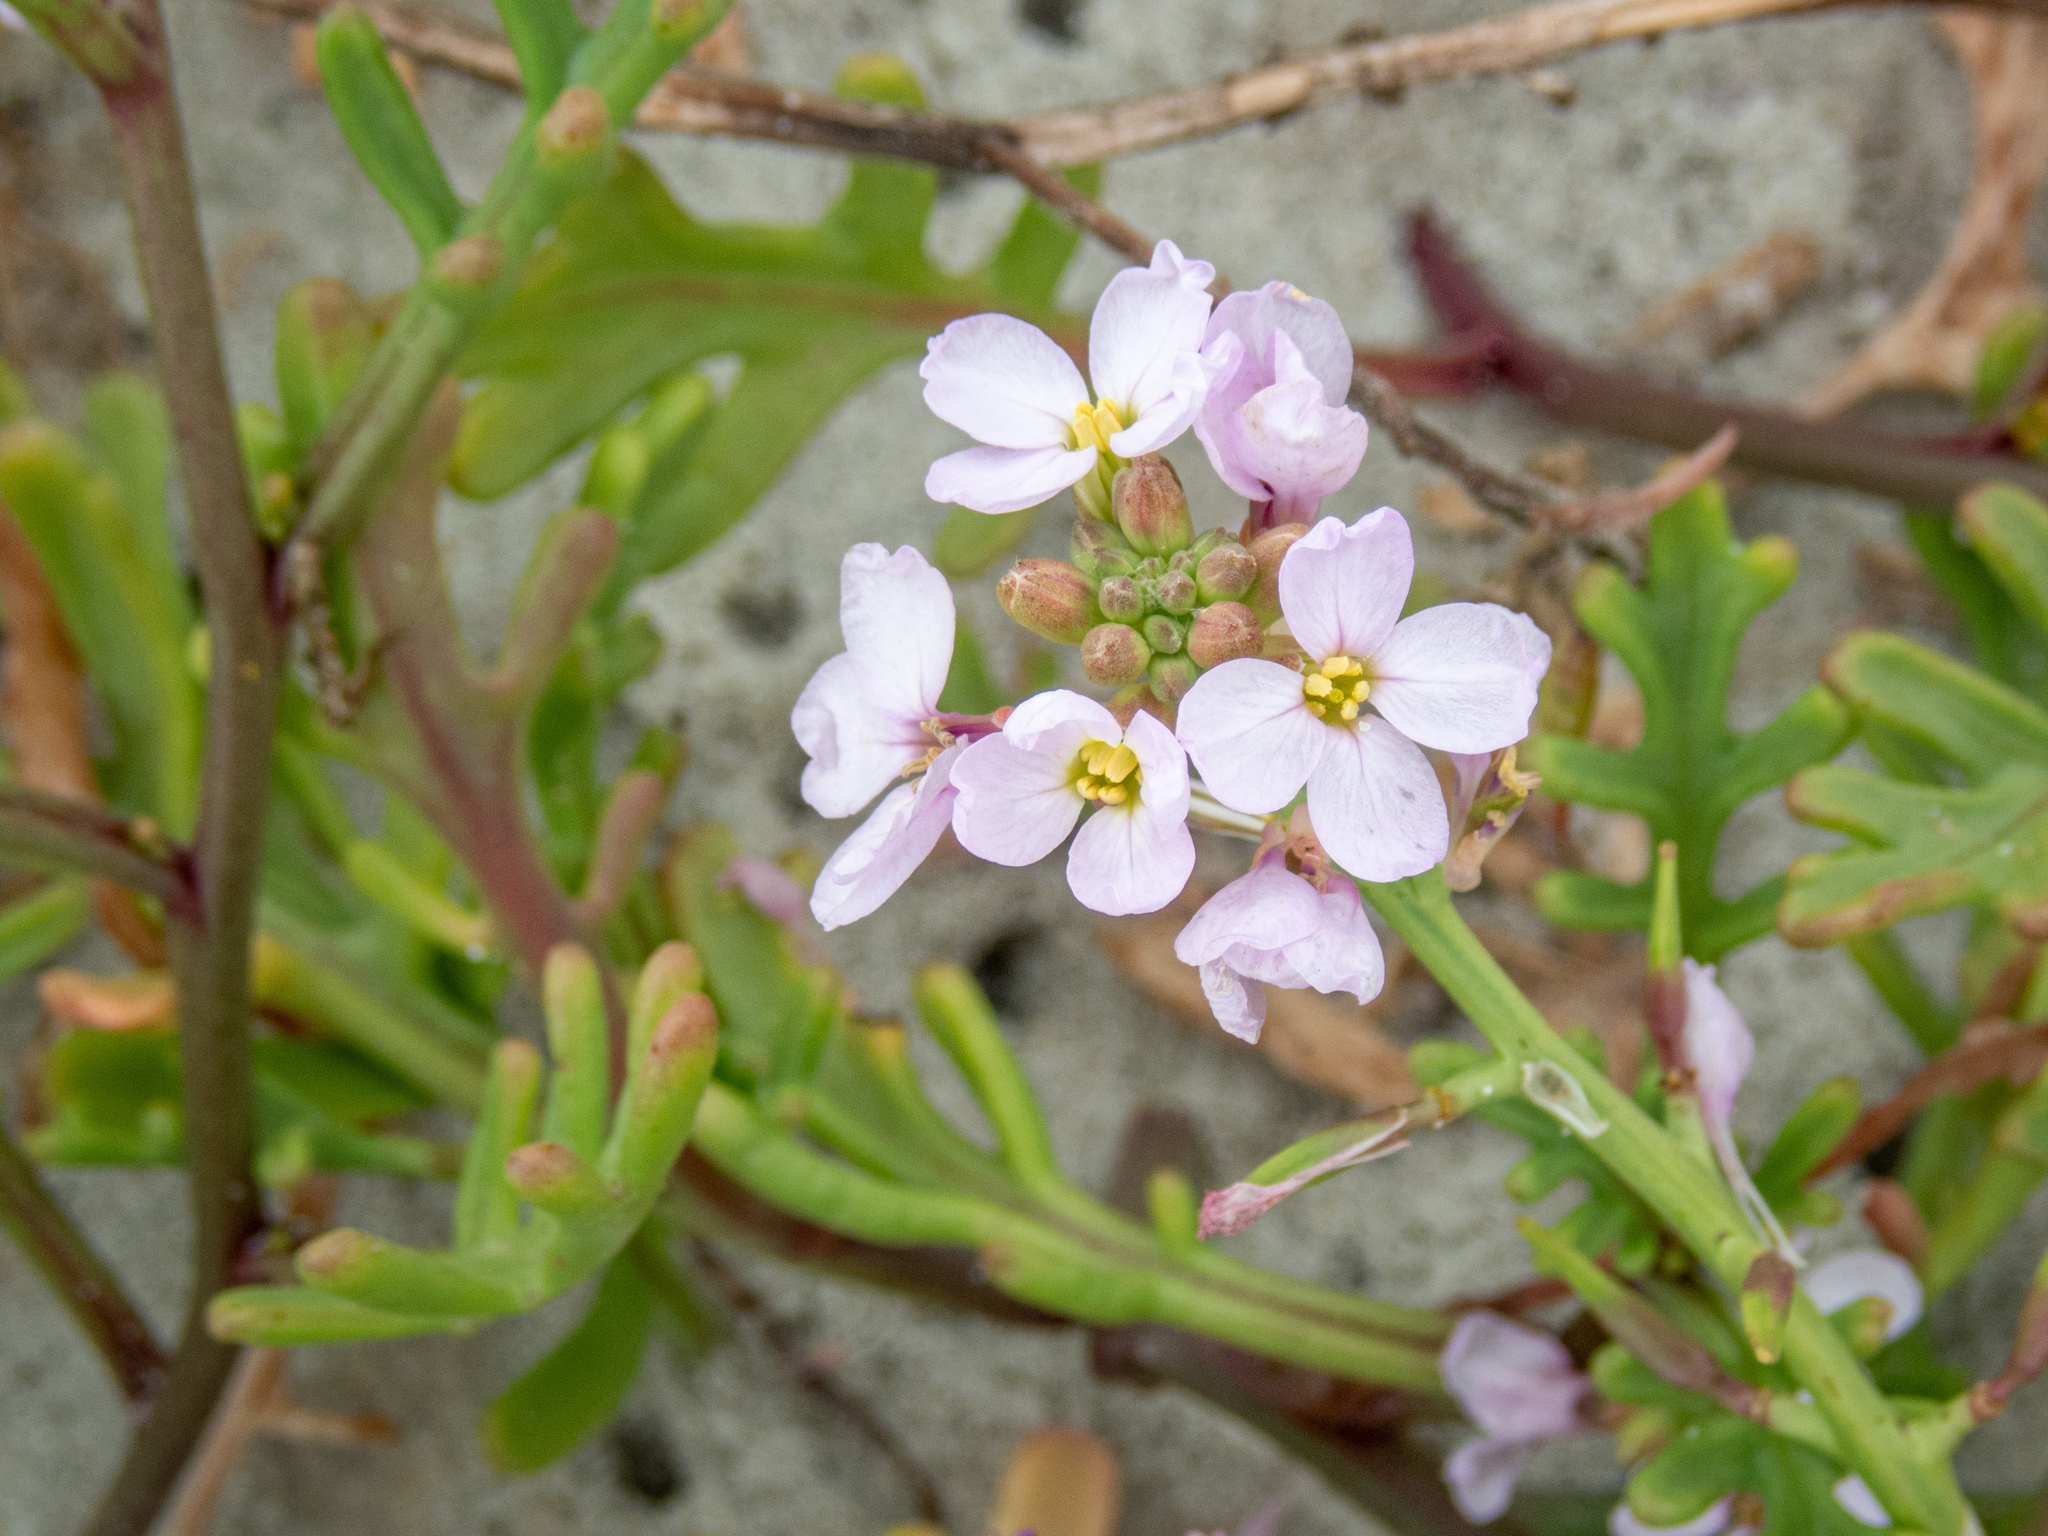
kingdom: Plantae
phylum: Tracheophyta
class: Magnoliopsida
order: Brassicales
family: Brassicaceae
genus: Cakile
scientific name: Cakile maritima
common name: Sea rocket
